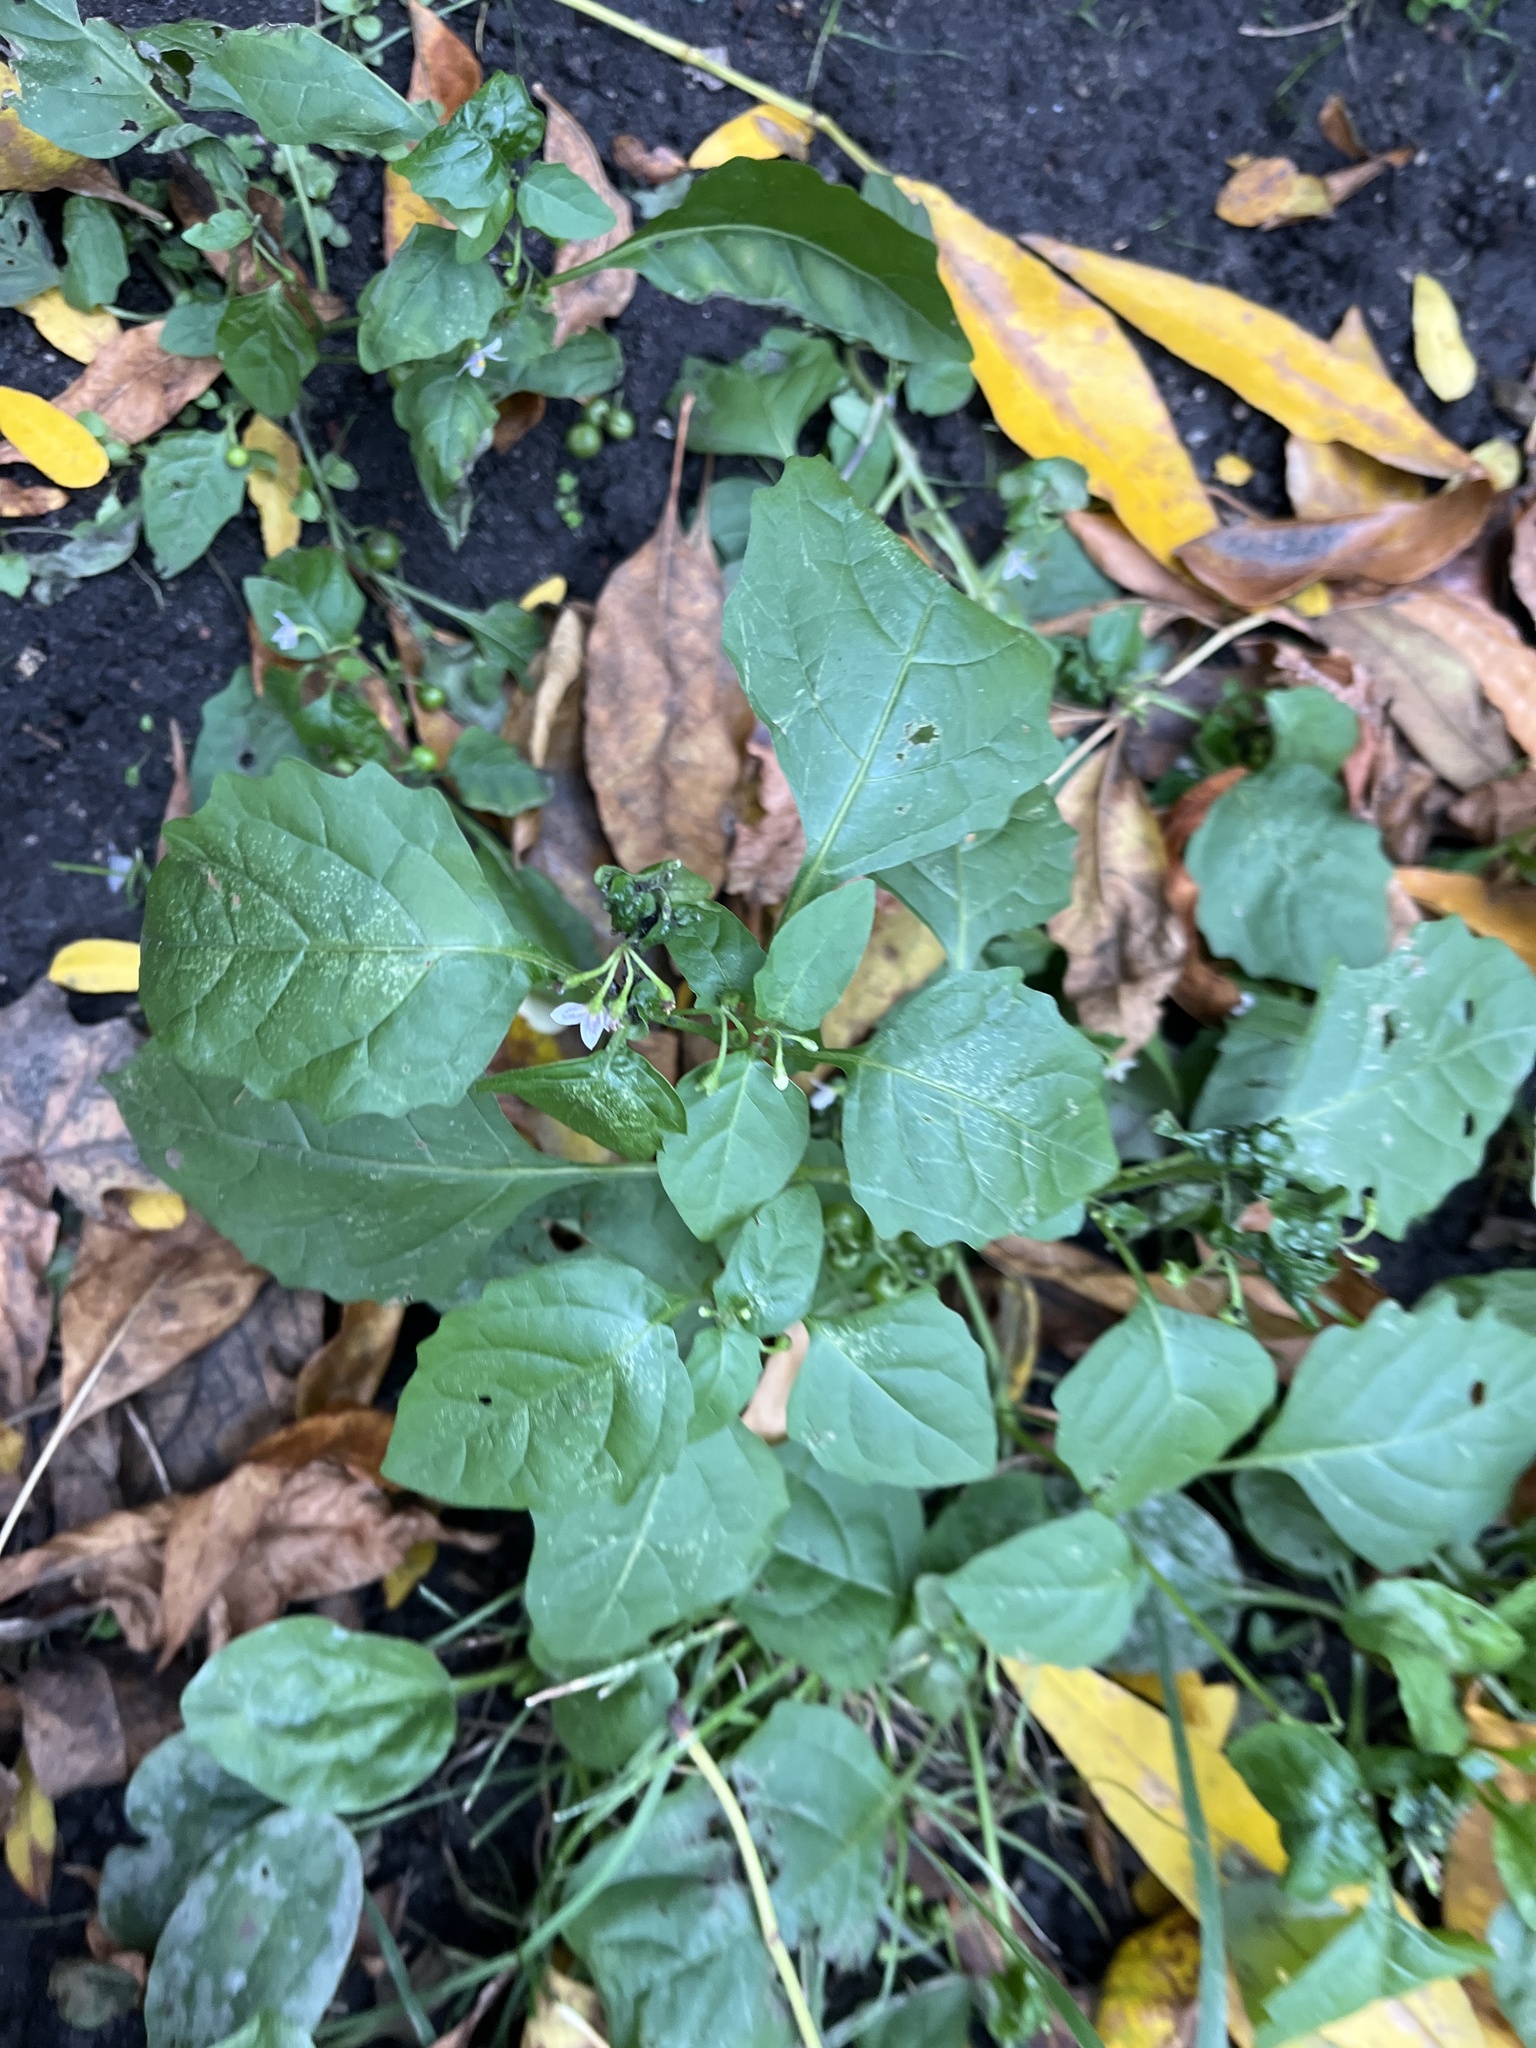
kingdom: Plantae
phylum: Tracheophyta
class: Magnoliopsida
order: Solanales
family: Solanaceae
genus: Solanum
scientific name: Solanum emulans
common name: Eastern black nightshade
